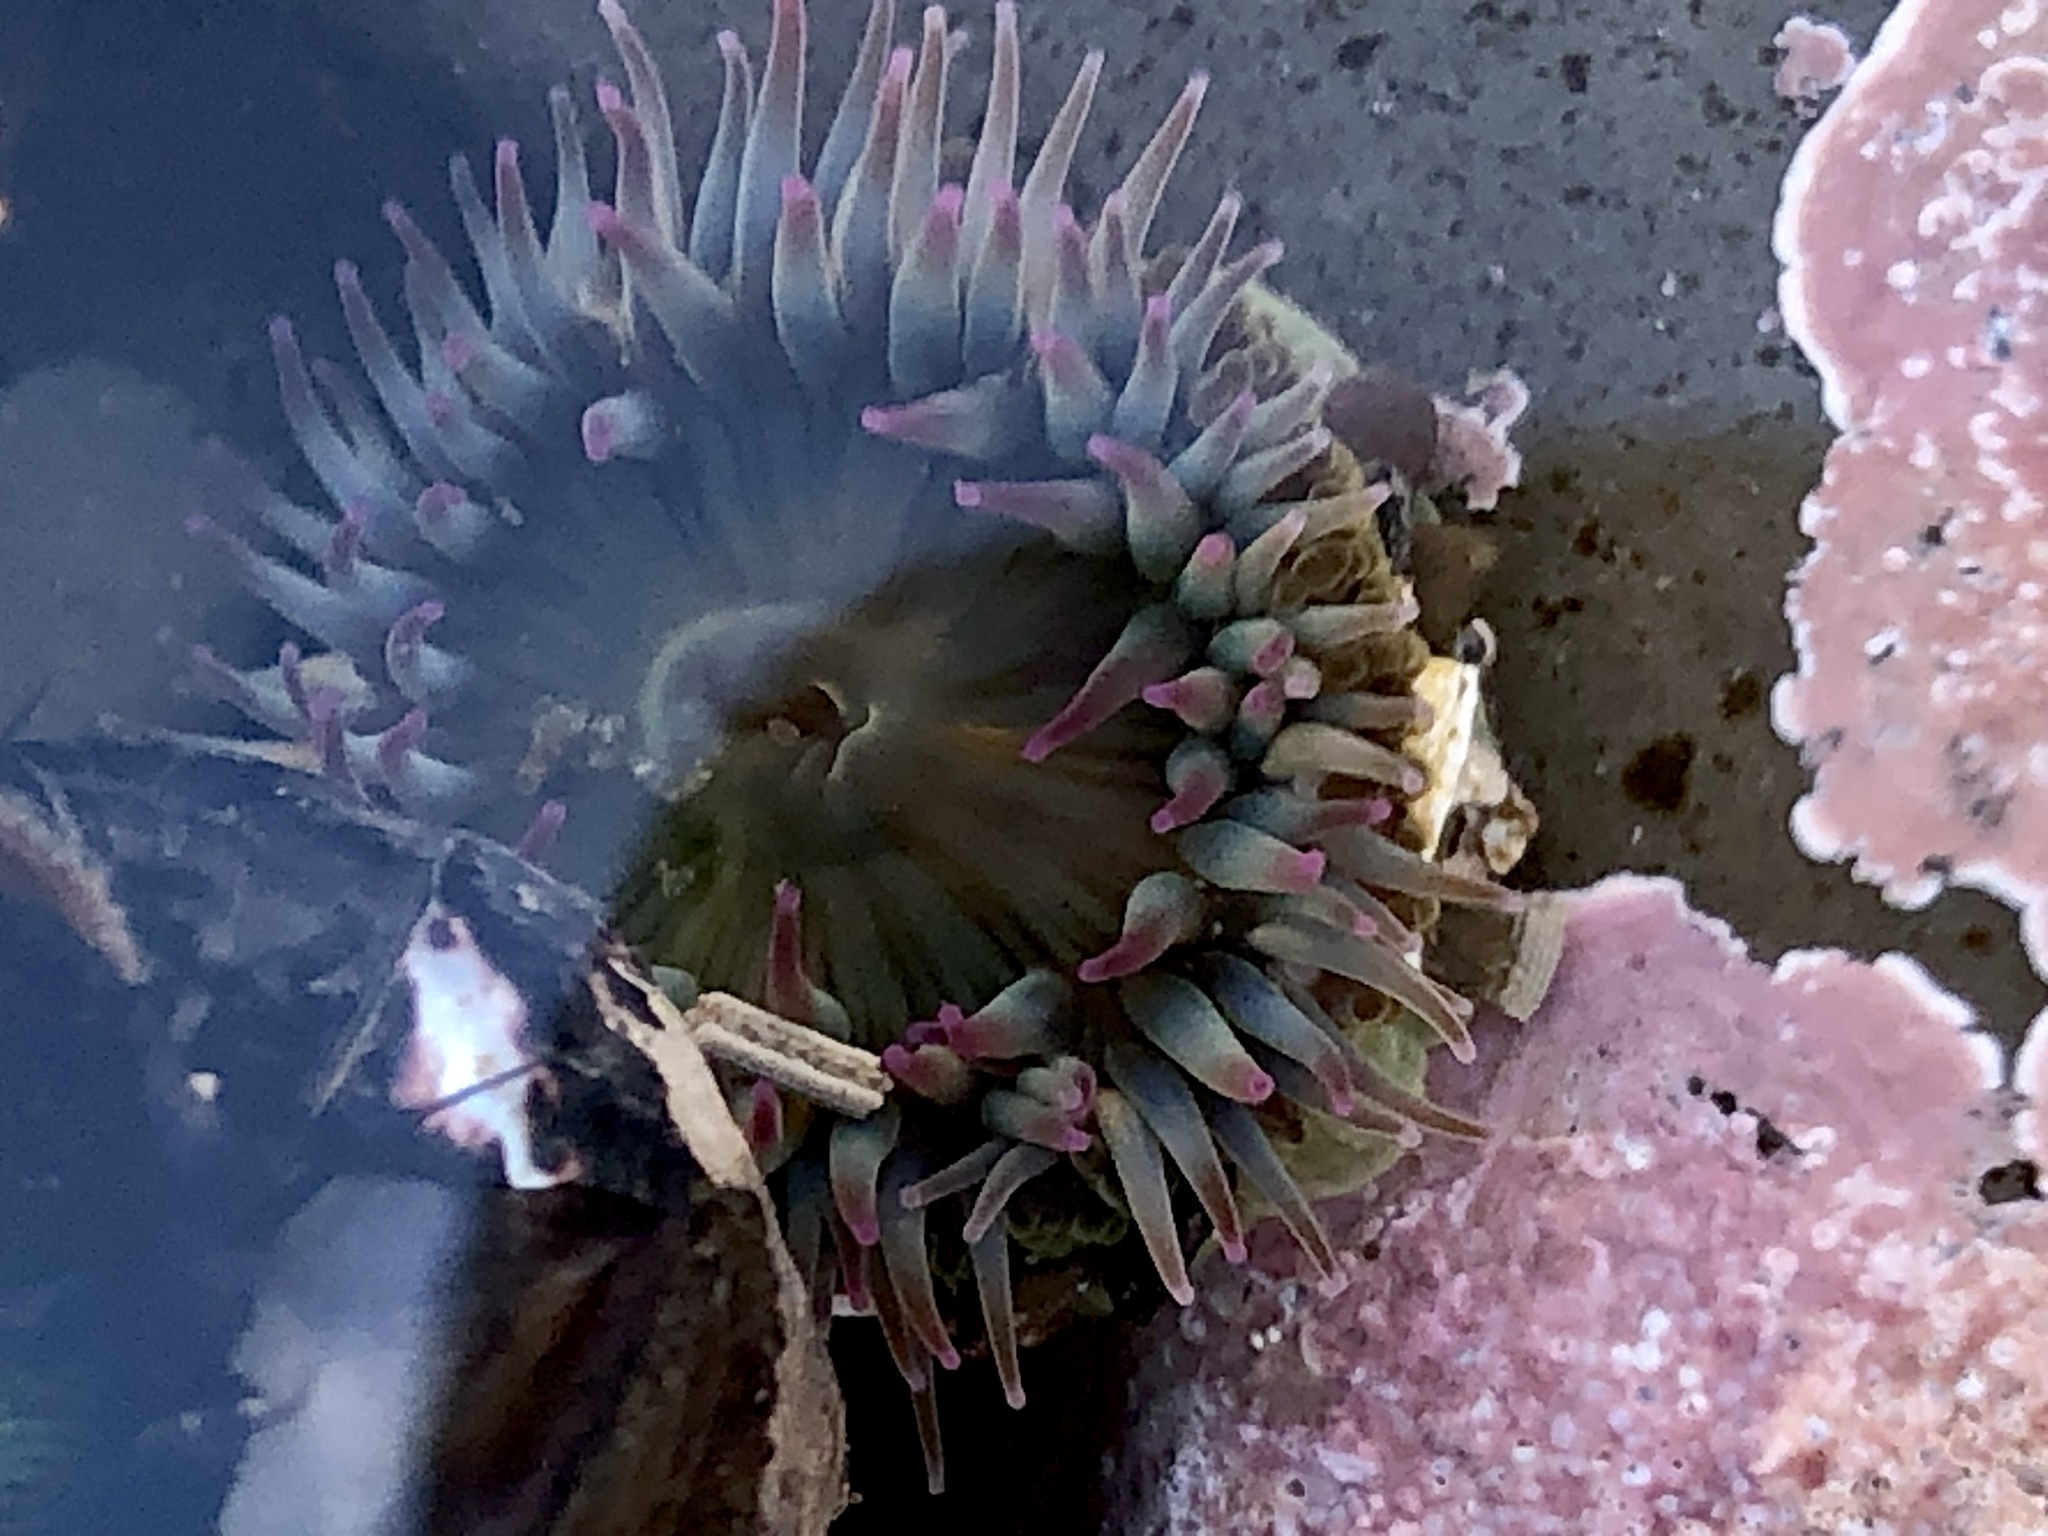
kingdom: Animalia
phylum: Cnidaria
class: Anthozoa
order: Actiniaria
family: Actiniidae
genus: Anthopleura
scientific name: Anthopleura elegantissima
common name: Clonal anemone
